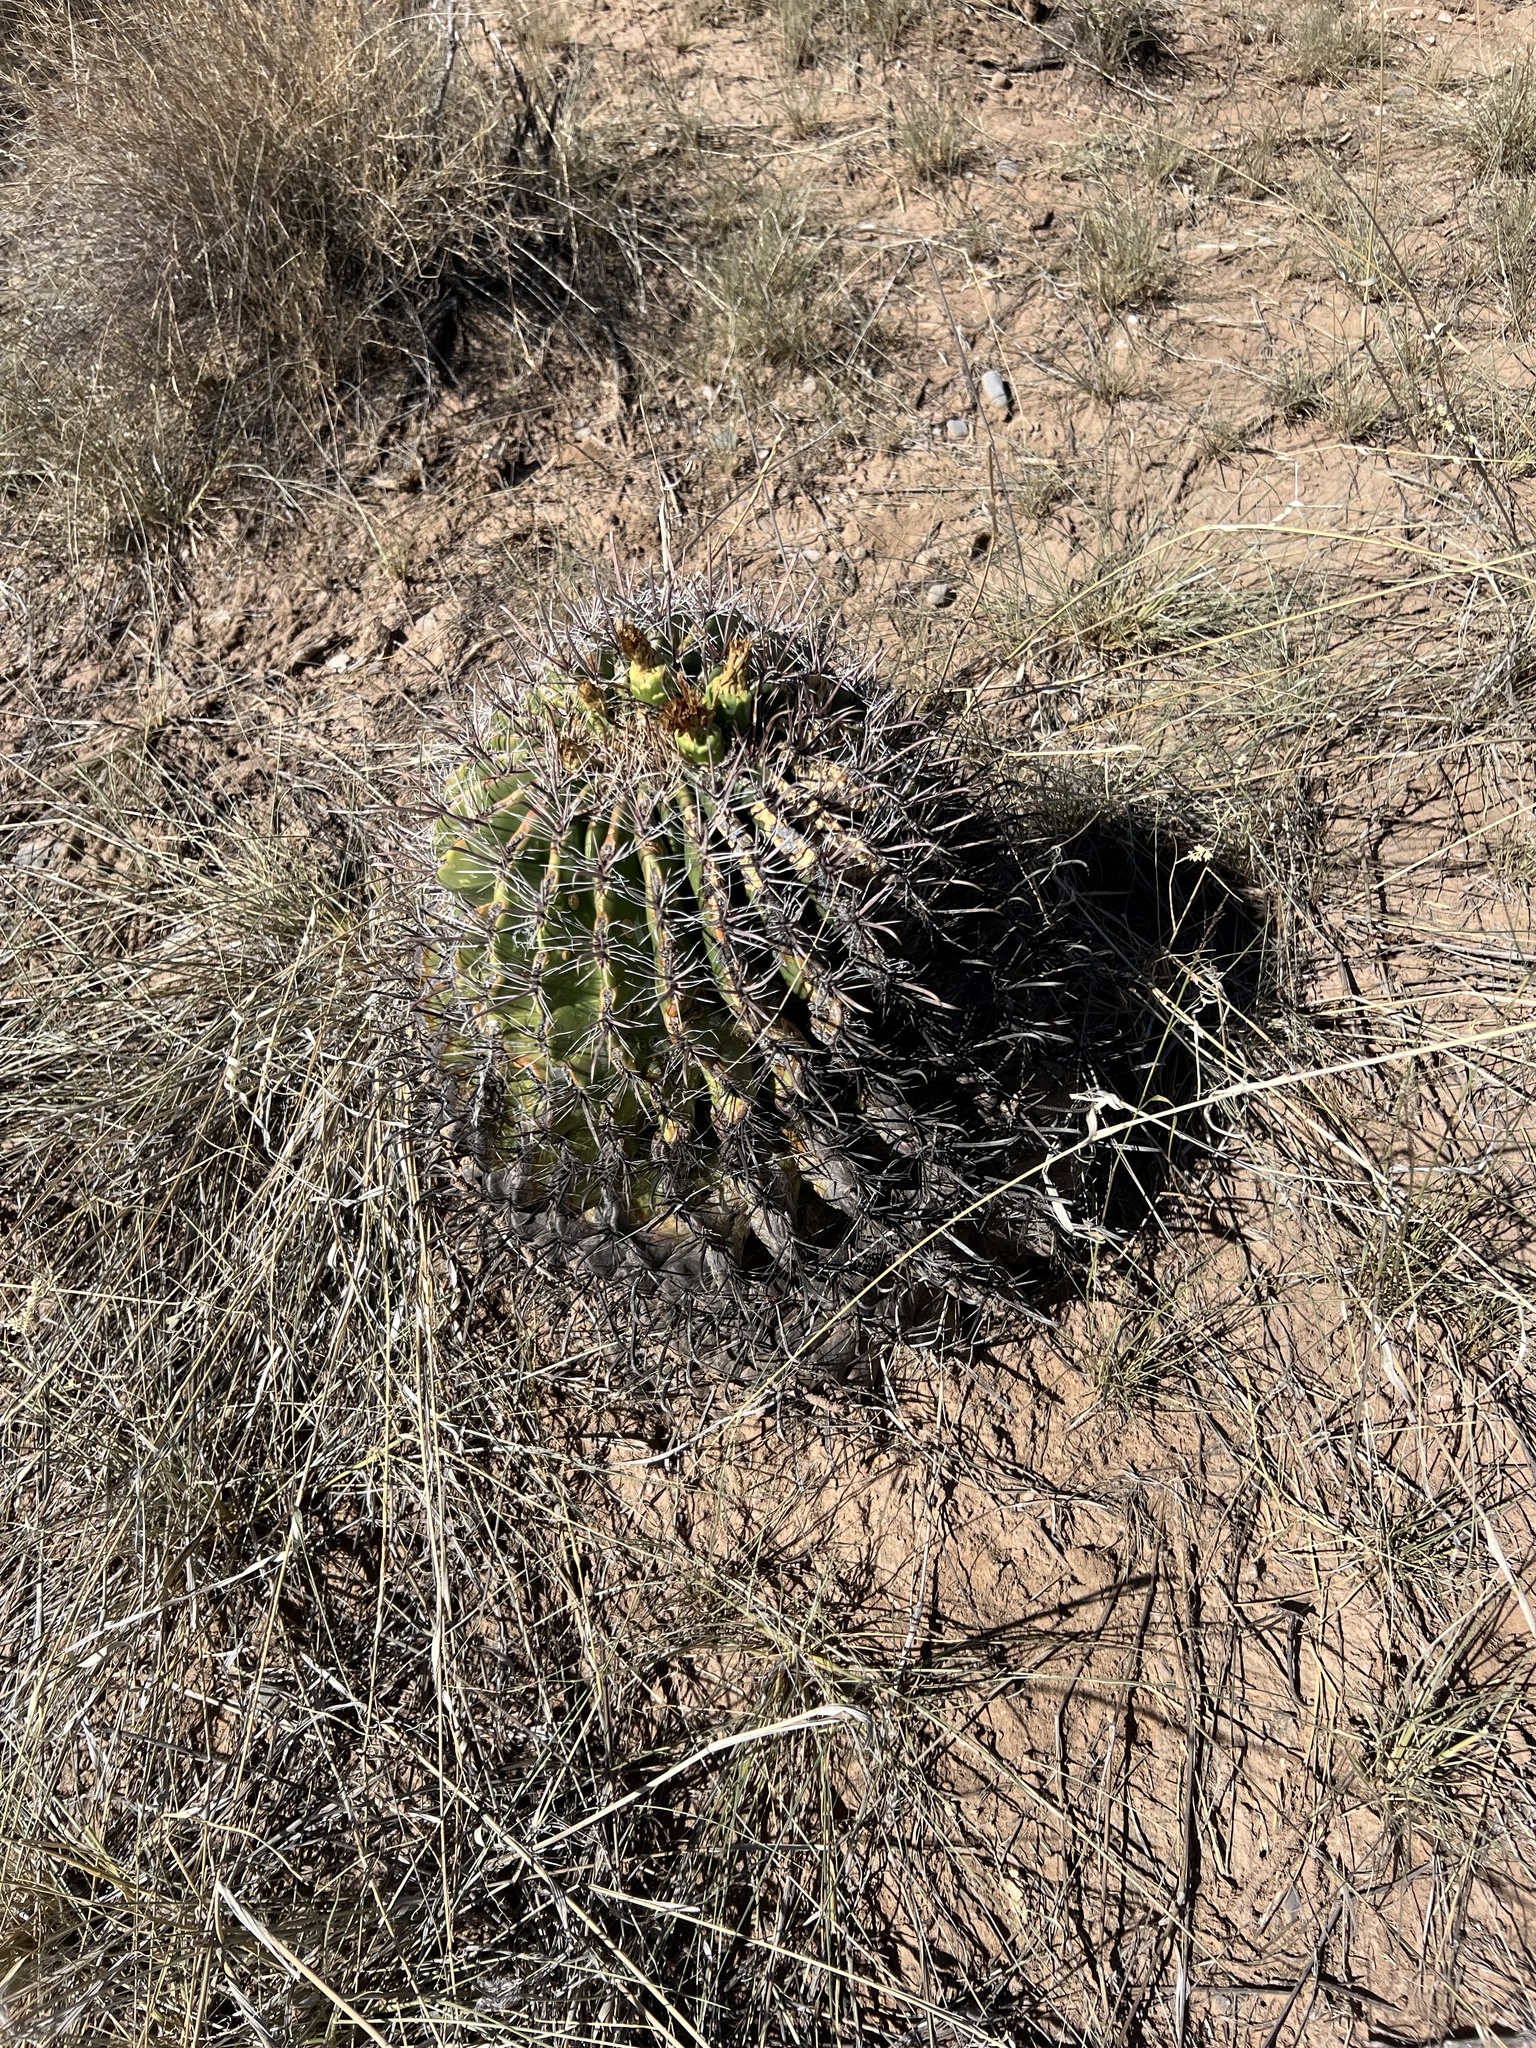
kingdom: Plantae
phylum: Tracheophyta
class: Magnoliopsida
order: Caryophyllales
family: Cactaceae
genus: Ferocactus
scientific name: Ferocactus wislizeni
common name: Candy barrel cactus
